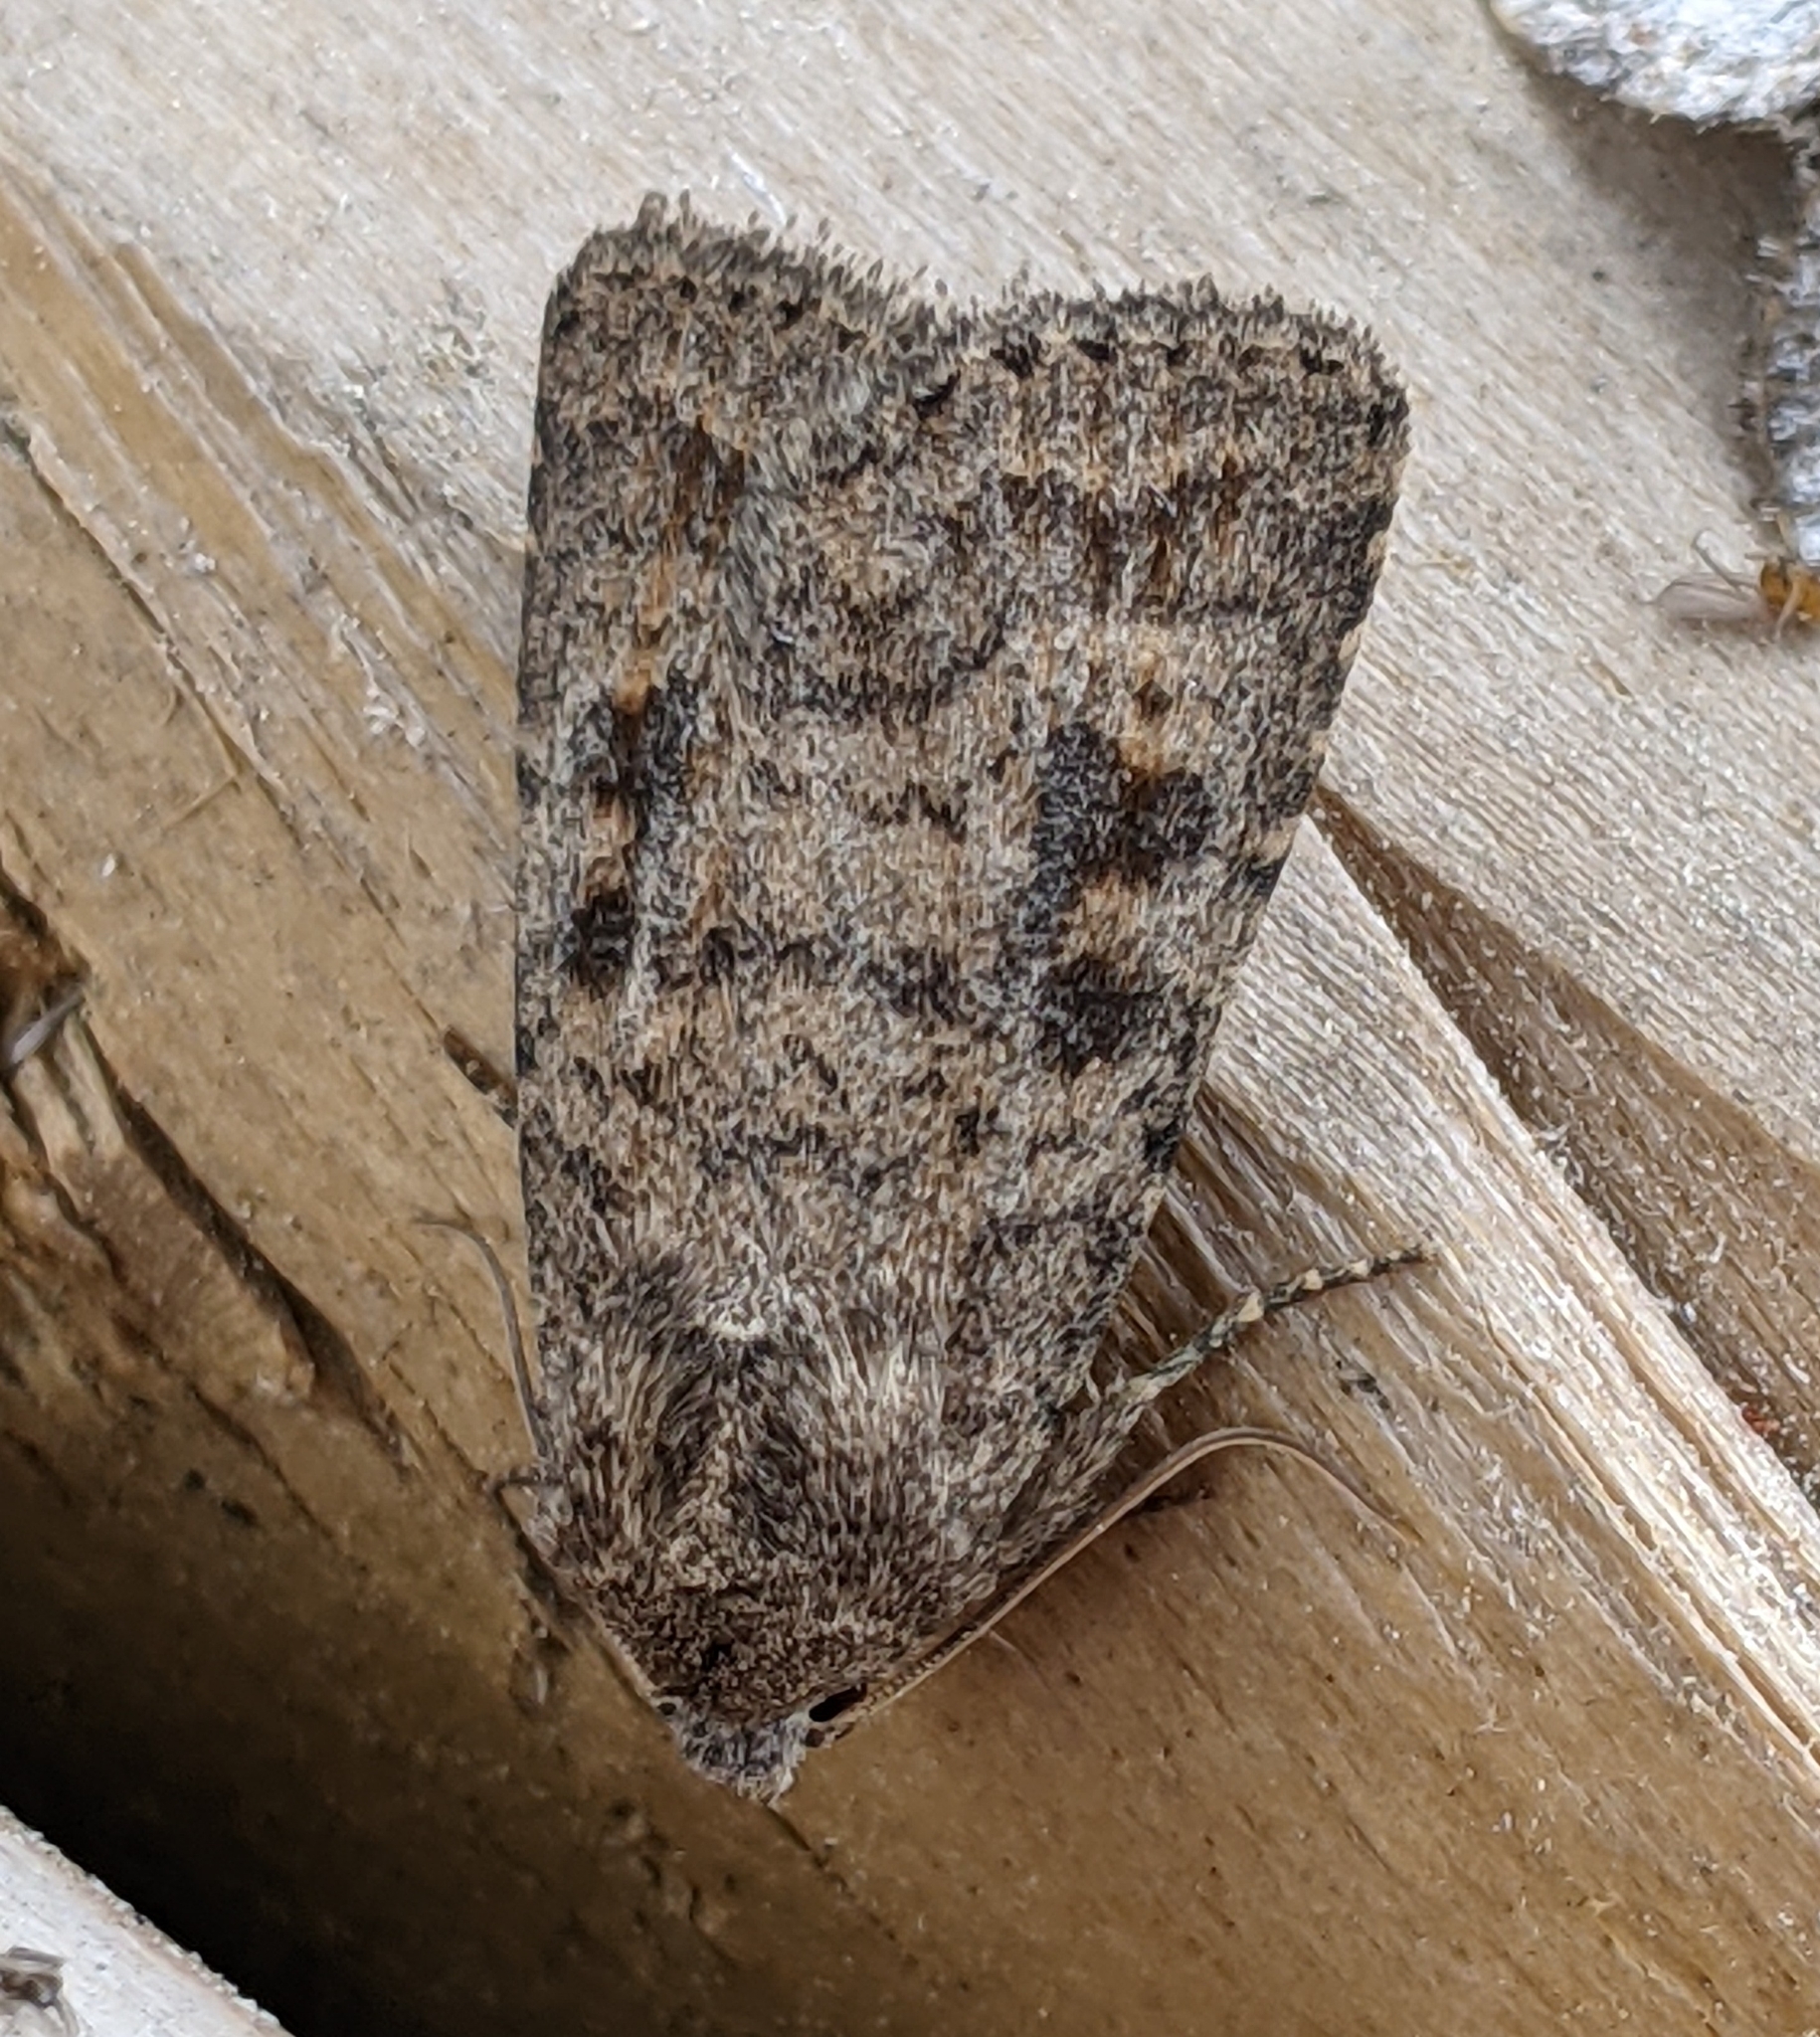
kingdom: Animalia
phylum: Arthropoda
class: Insecta
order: Lepidoptera
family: Noctuidae
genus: Caradrina
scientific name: Caradrina morpheus
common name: Mottled rustic
